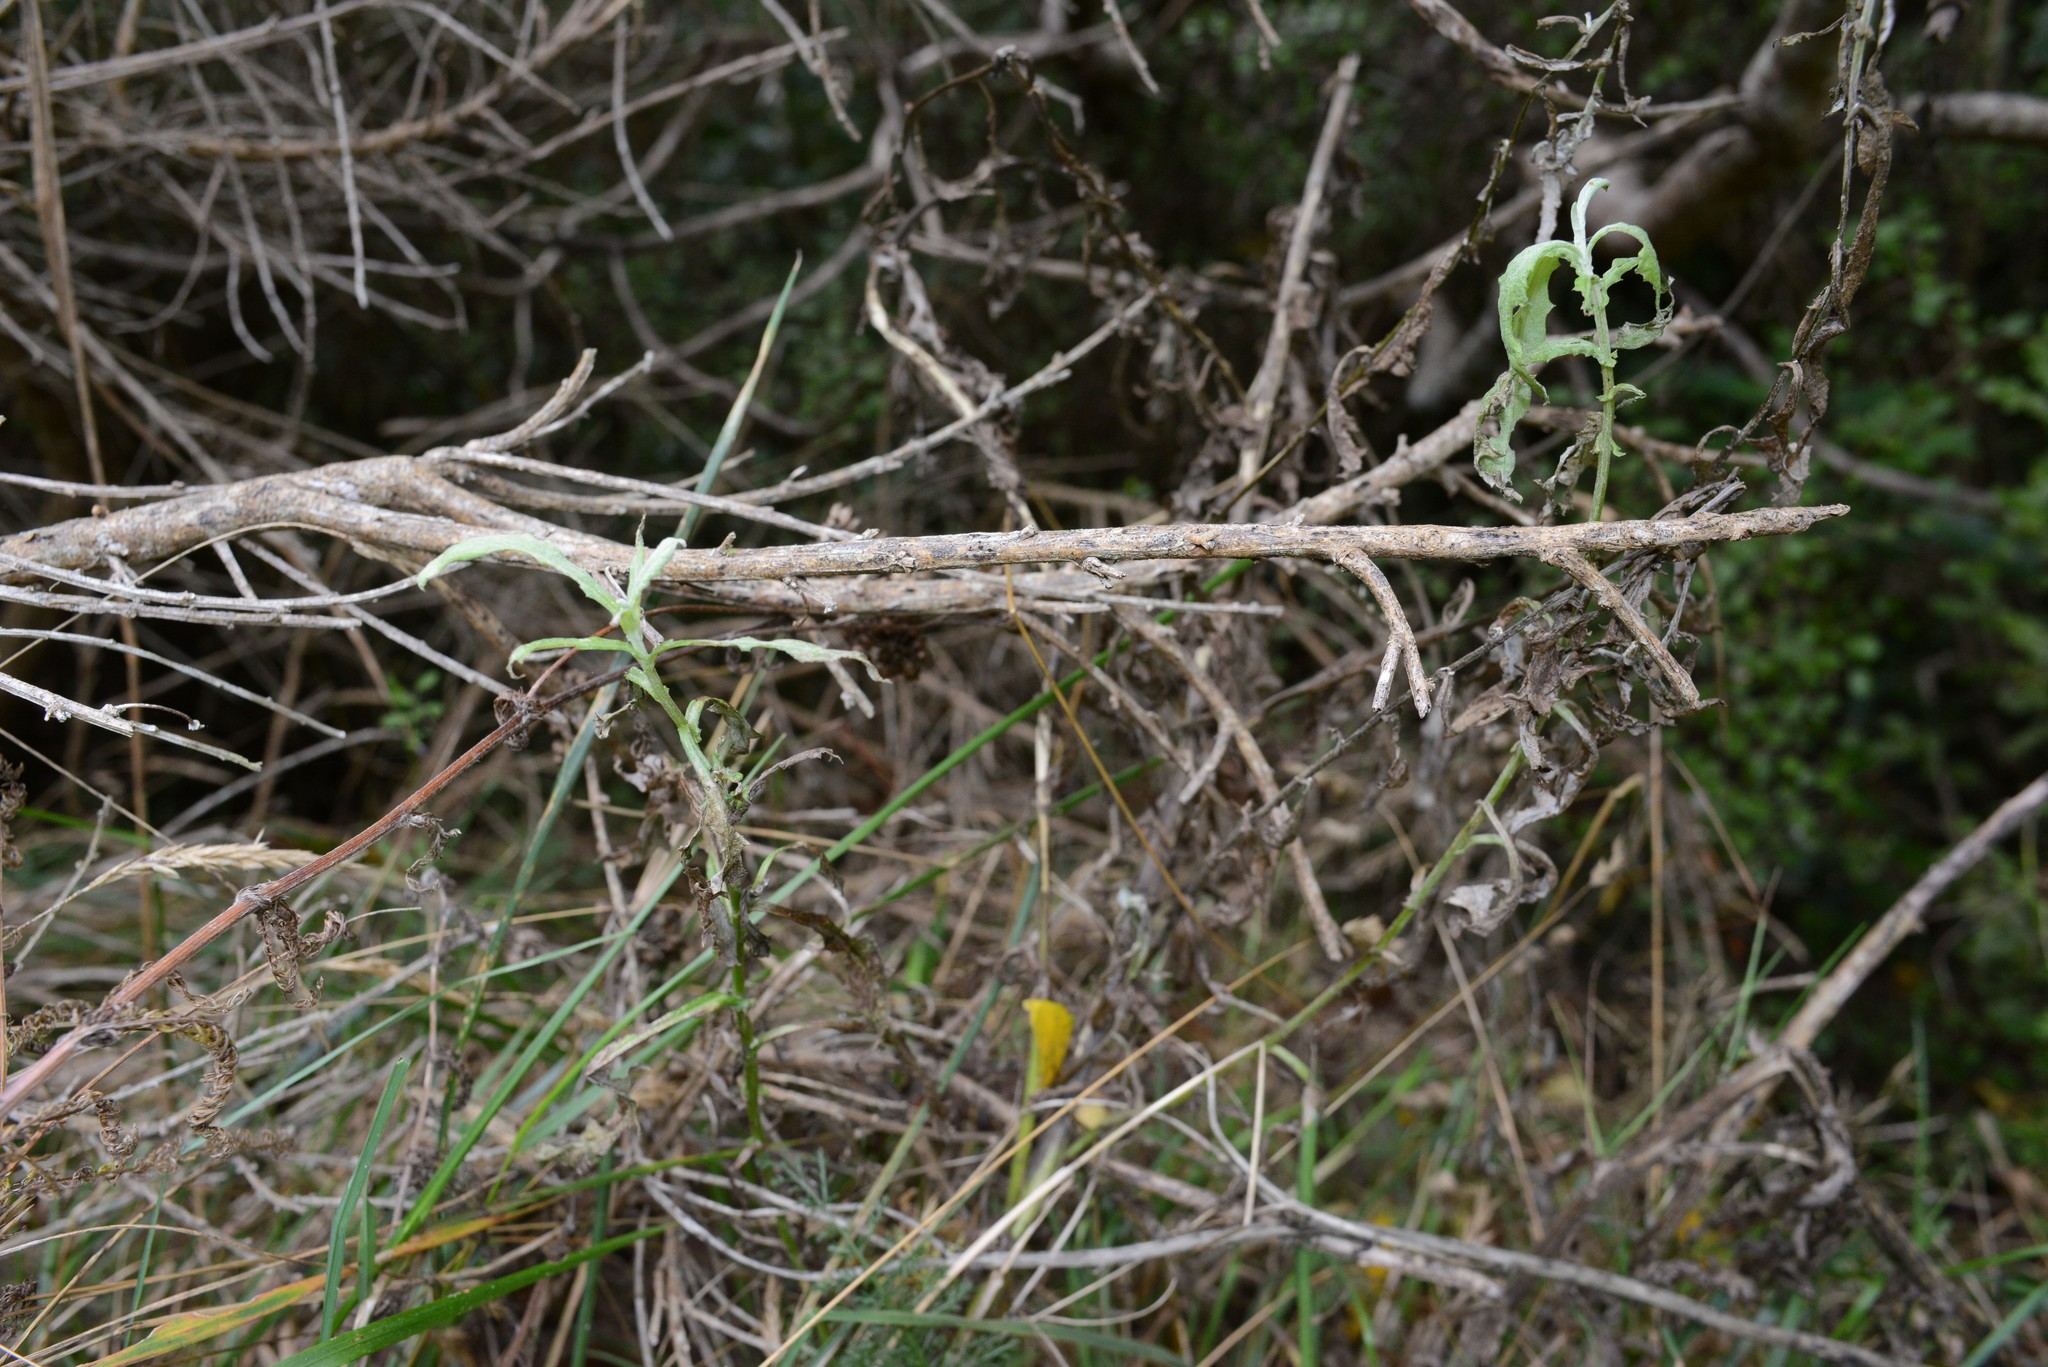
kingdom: Plantae
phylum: Tracheophyta
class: Magnoliopsida
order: Asterales
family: Asteraceae
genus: Senecio
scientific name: Senecio glomeratus
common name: Cutleaf burnweed
